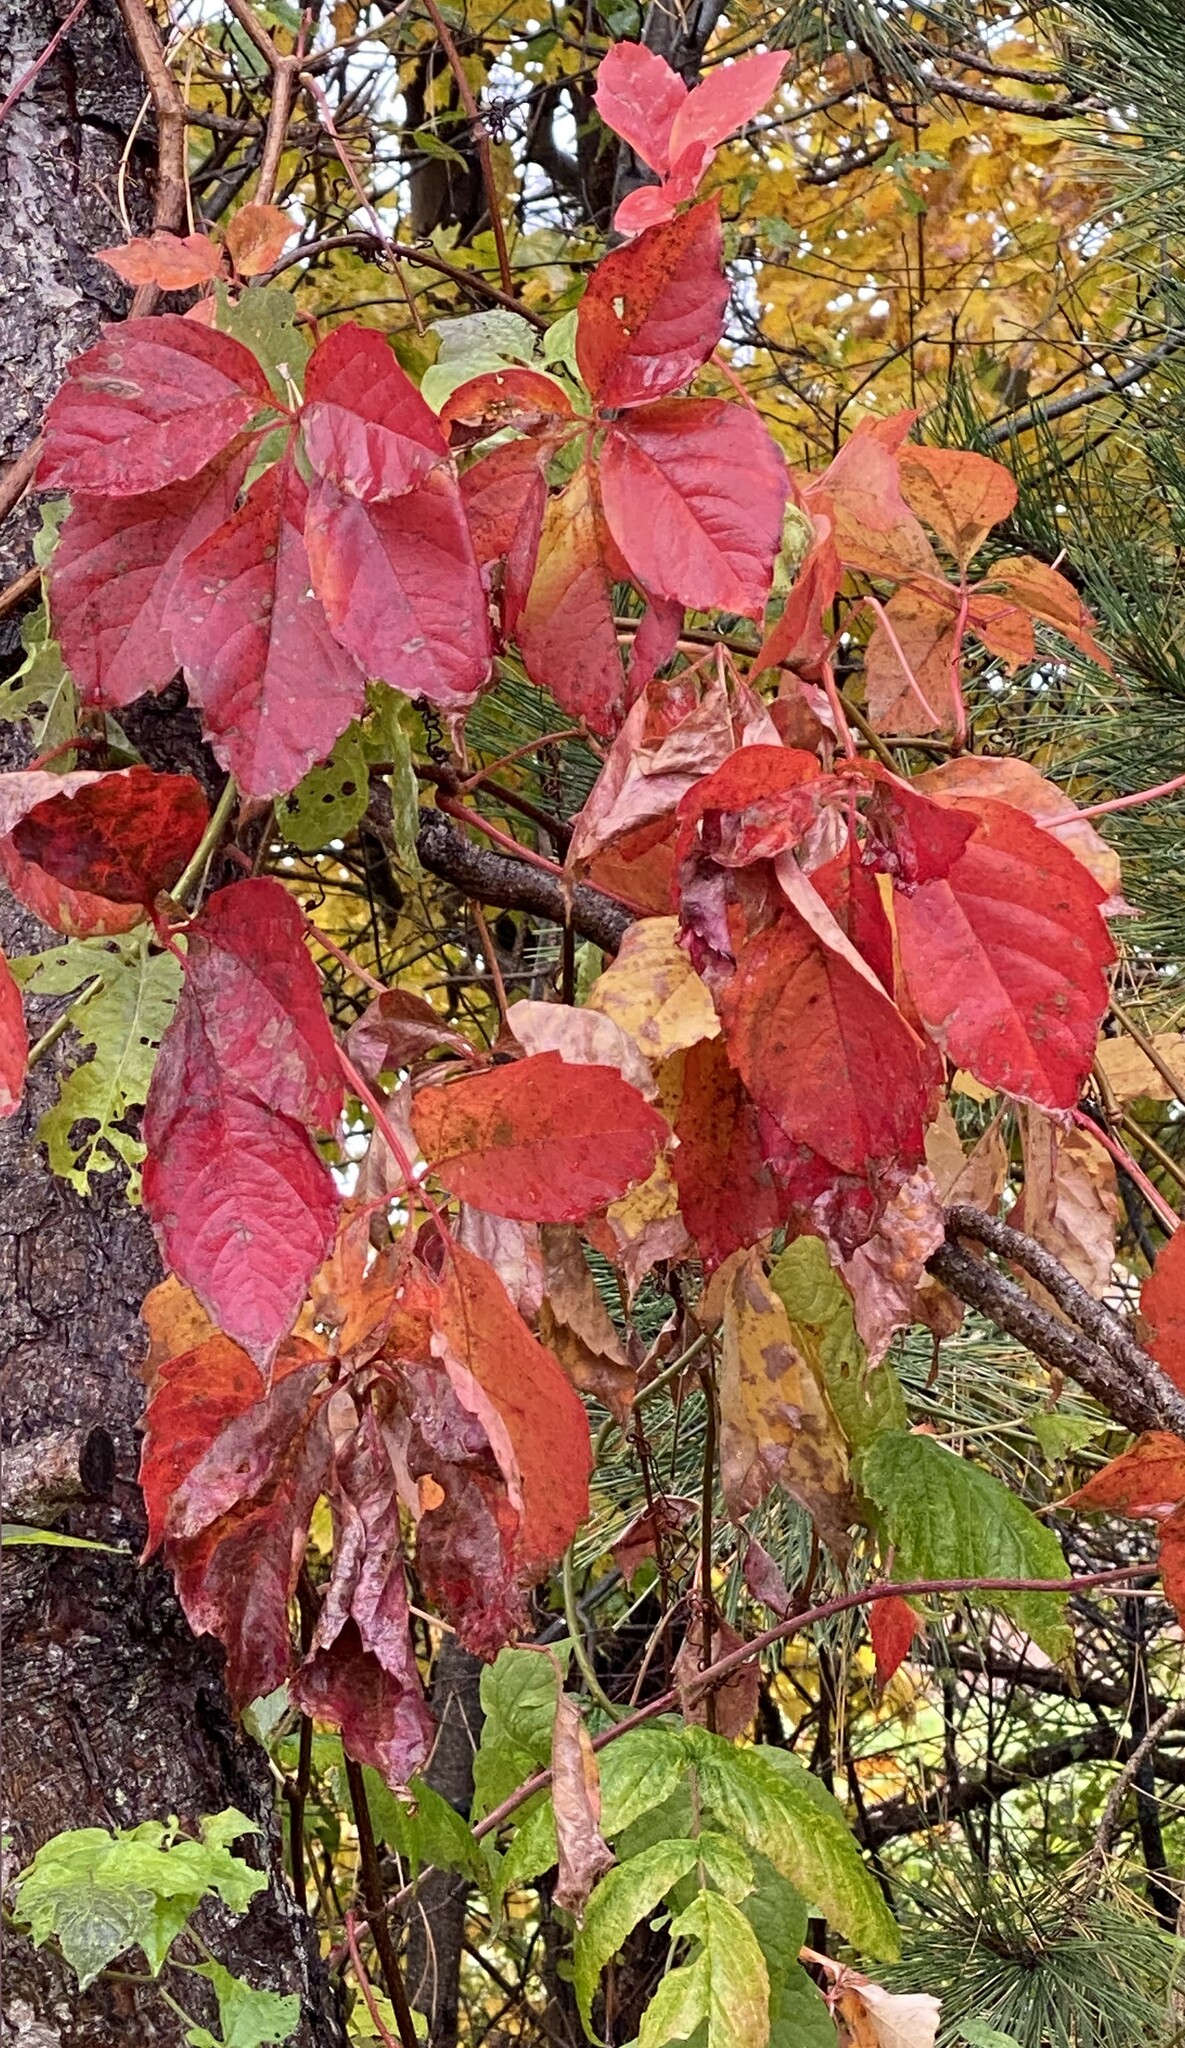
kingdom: Plantae
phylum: Tracheophyta
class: Magnoliopsida
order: Vitales
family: Vitaceae
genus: Parthenocissus
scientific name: Parthenocissus quinquefolia
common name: Virginia-creeper
